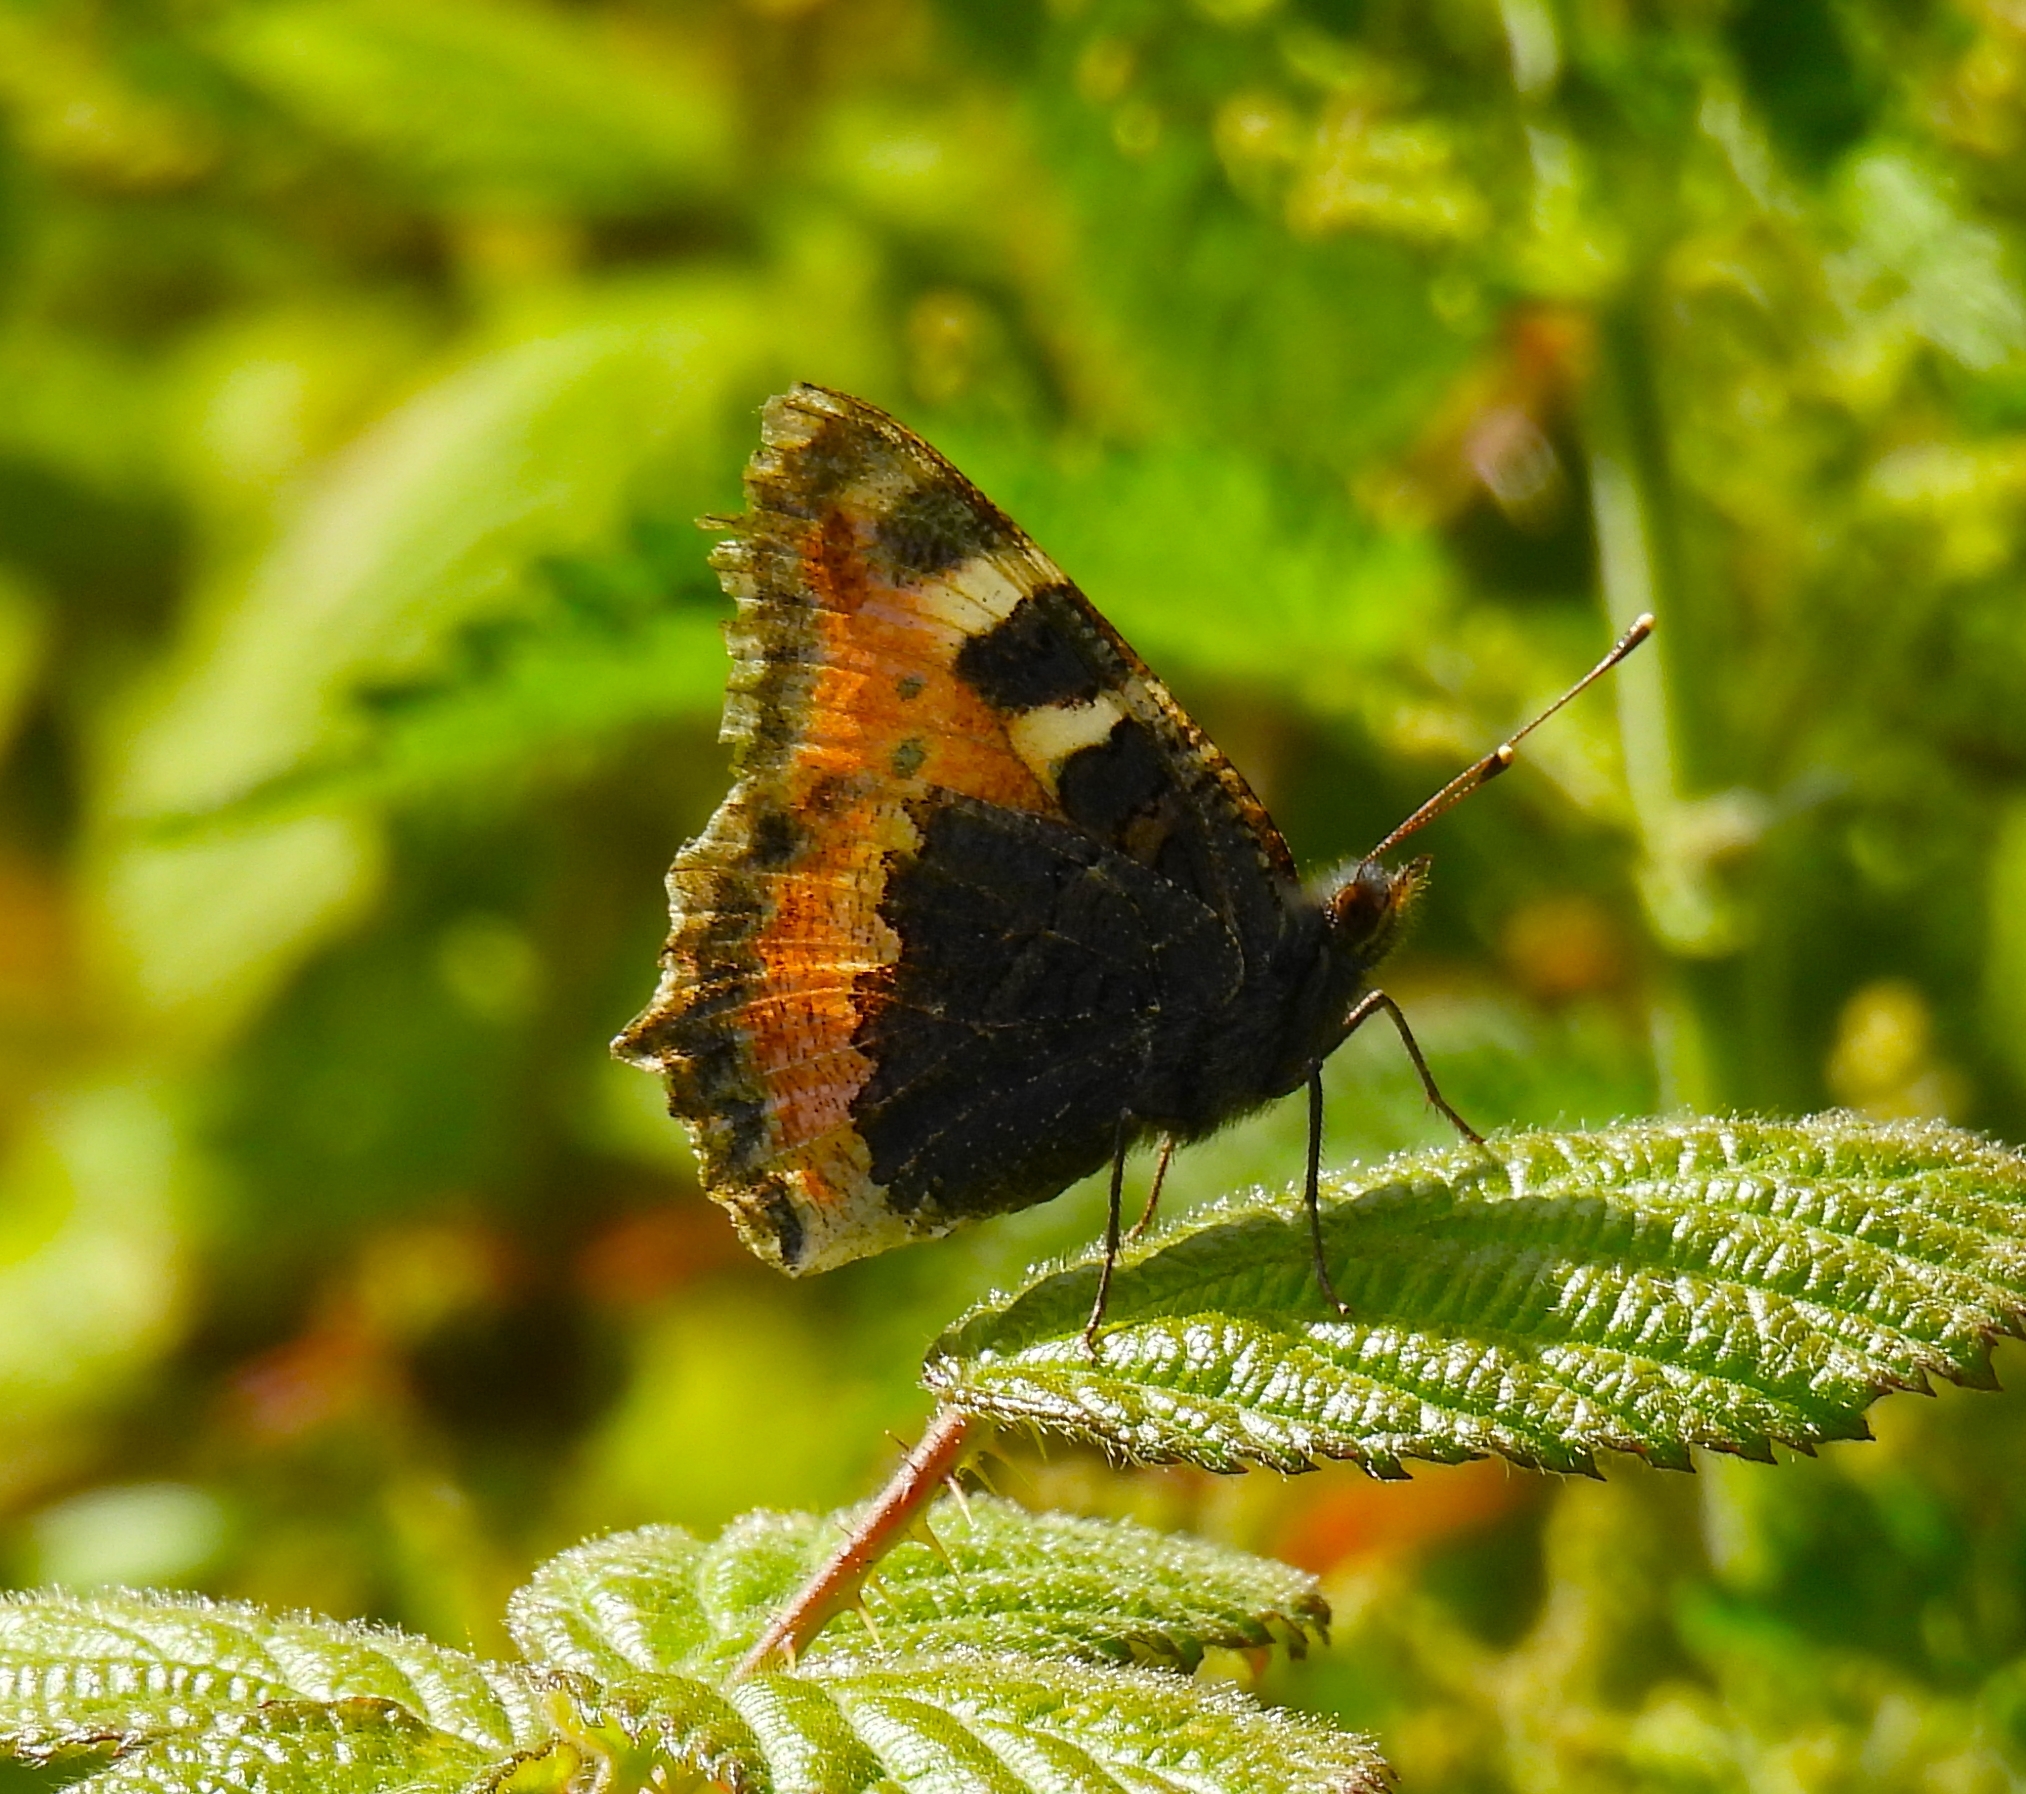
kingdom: Animalia
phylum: Arthropoda
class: Insecta
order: Lepidoptera
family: Nymphalidae
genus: Aglais
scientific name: Aglais urticae
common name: Small tortoiseshell
